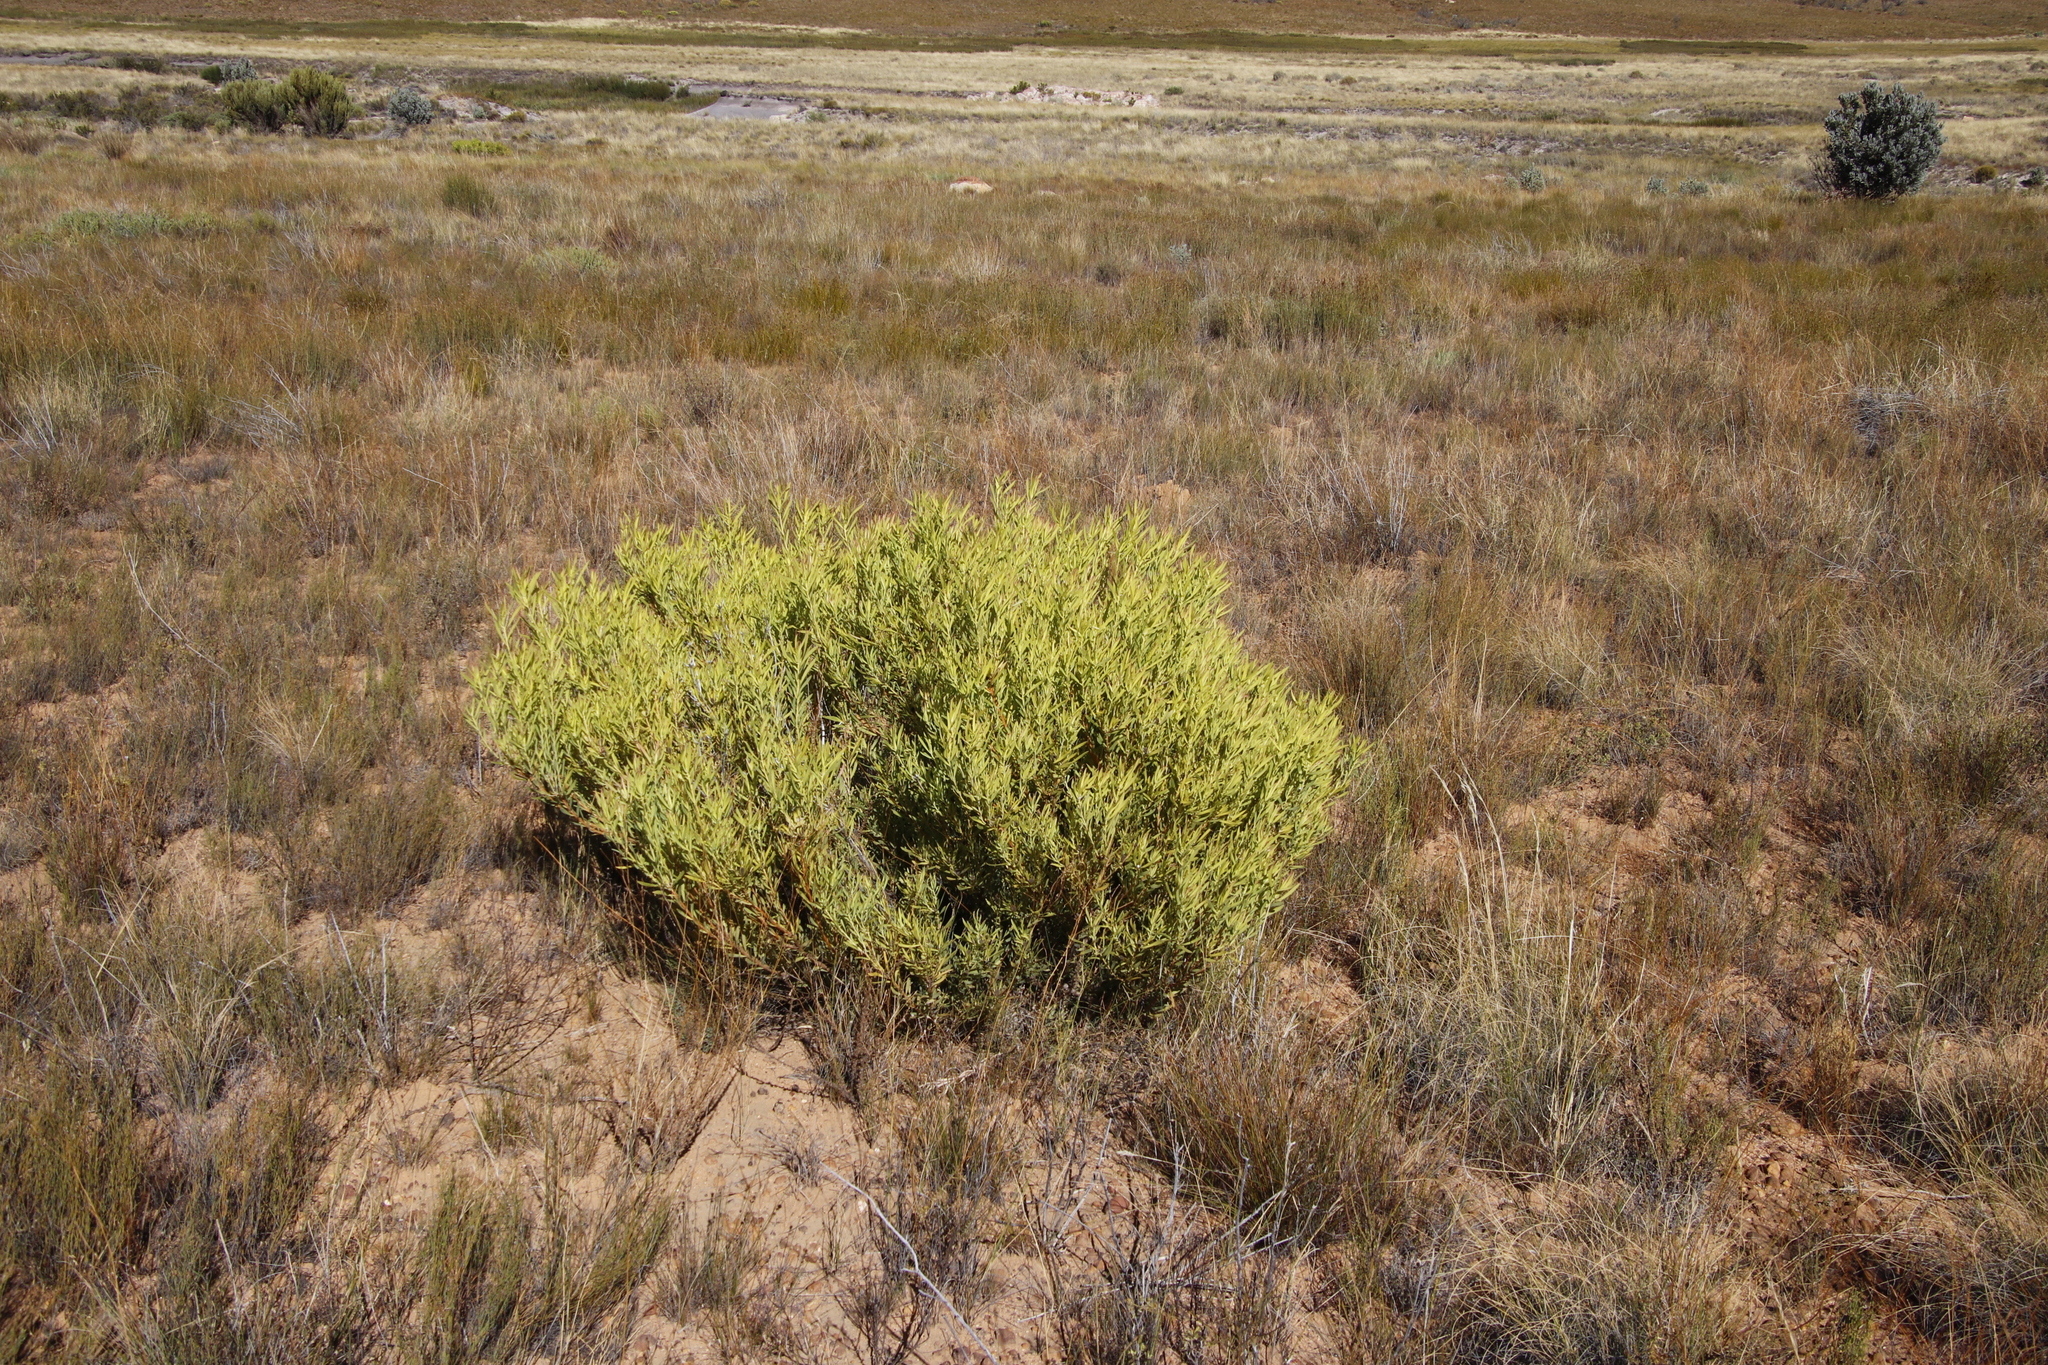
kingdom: Plantae
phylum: Tracheophyta
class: Magnoliopsida
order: Proteales
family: Proteaceae
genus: Leucadendron
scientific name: Leucadendron salignum
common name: Common sunshine conebush
